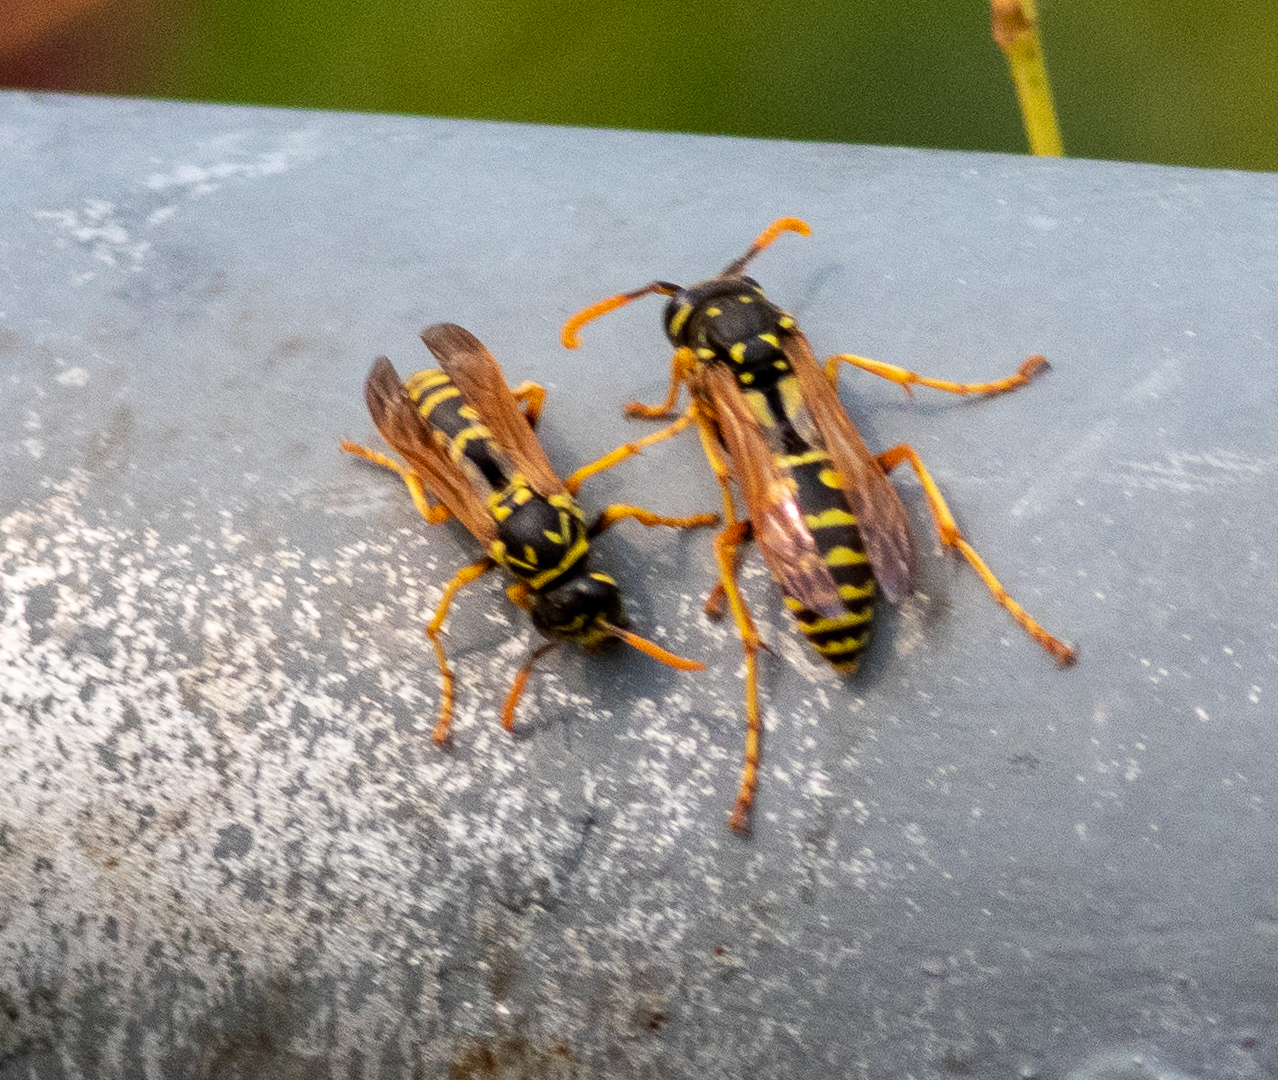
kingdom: Animalia
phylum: Arthropoda
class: Insecta
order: Hymenoptera
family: Eumenidae
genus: Polistes
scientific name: Polistes dominula
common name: Paper wasp
